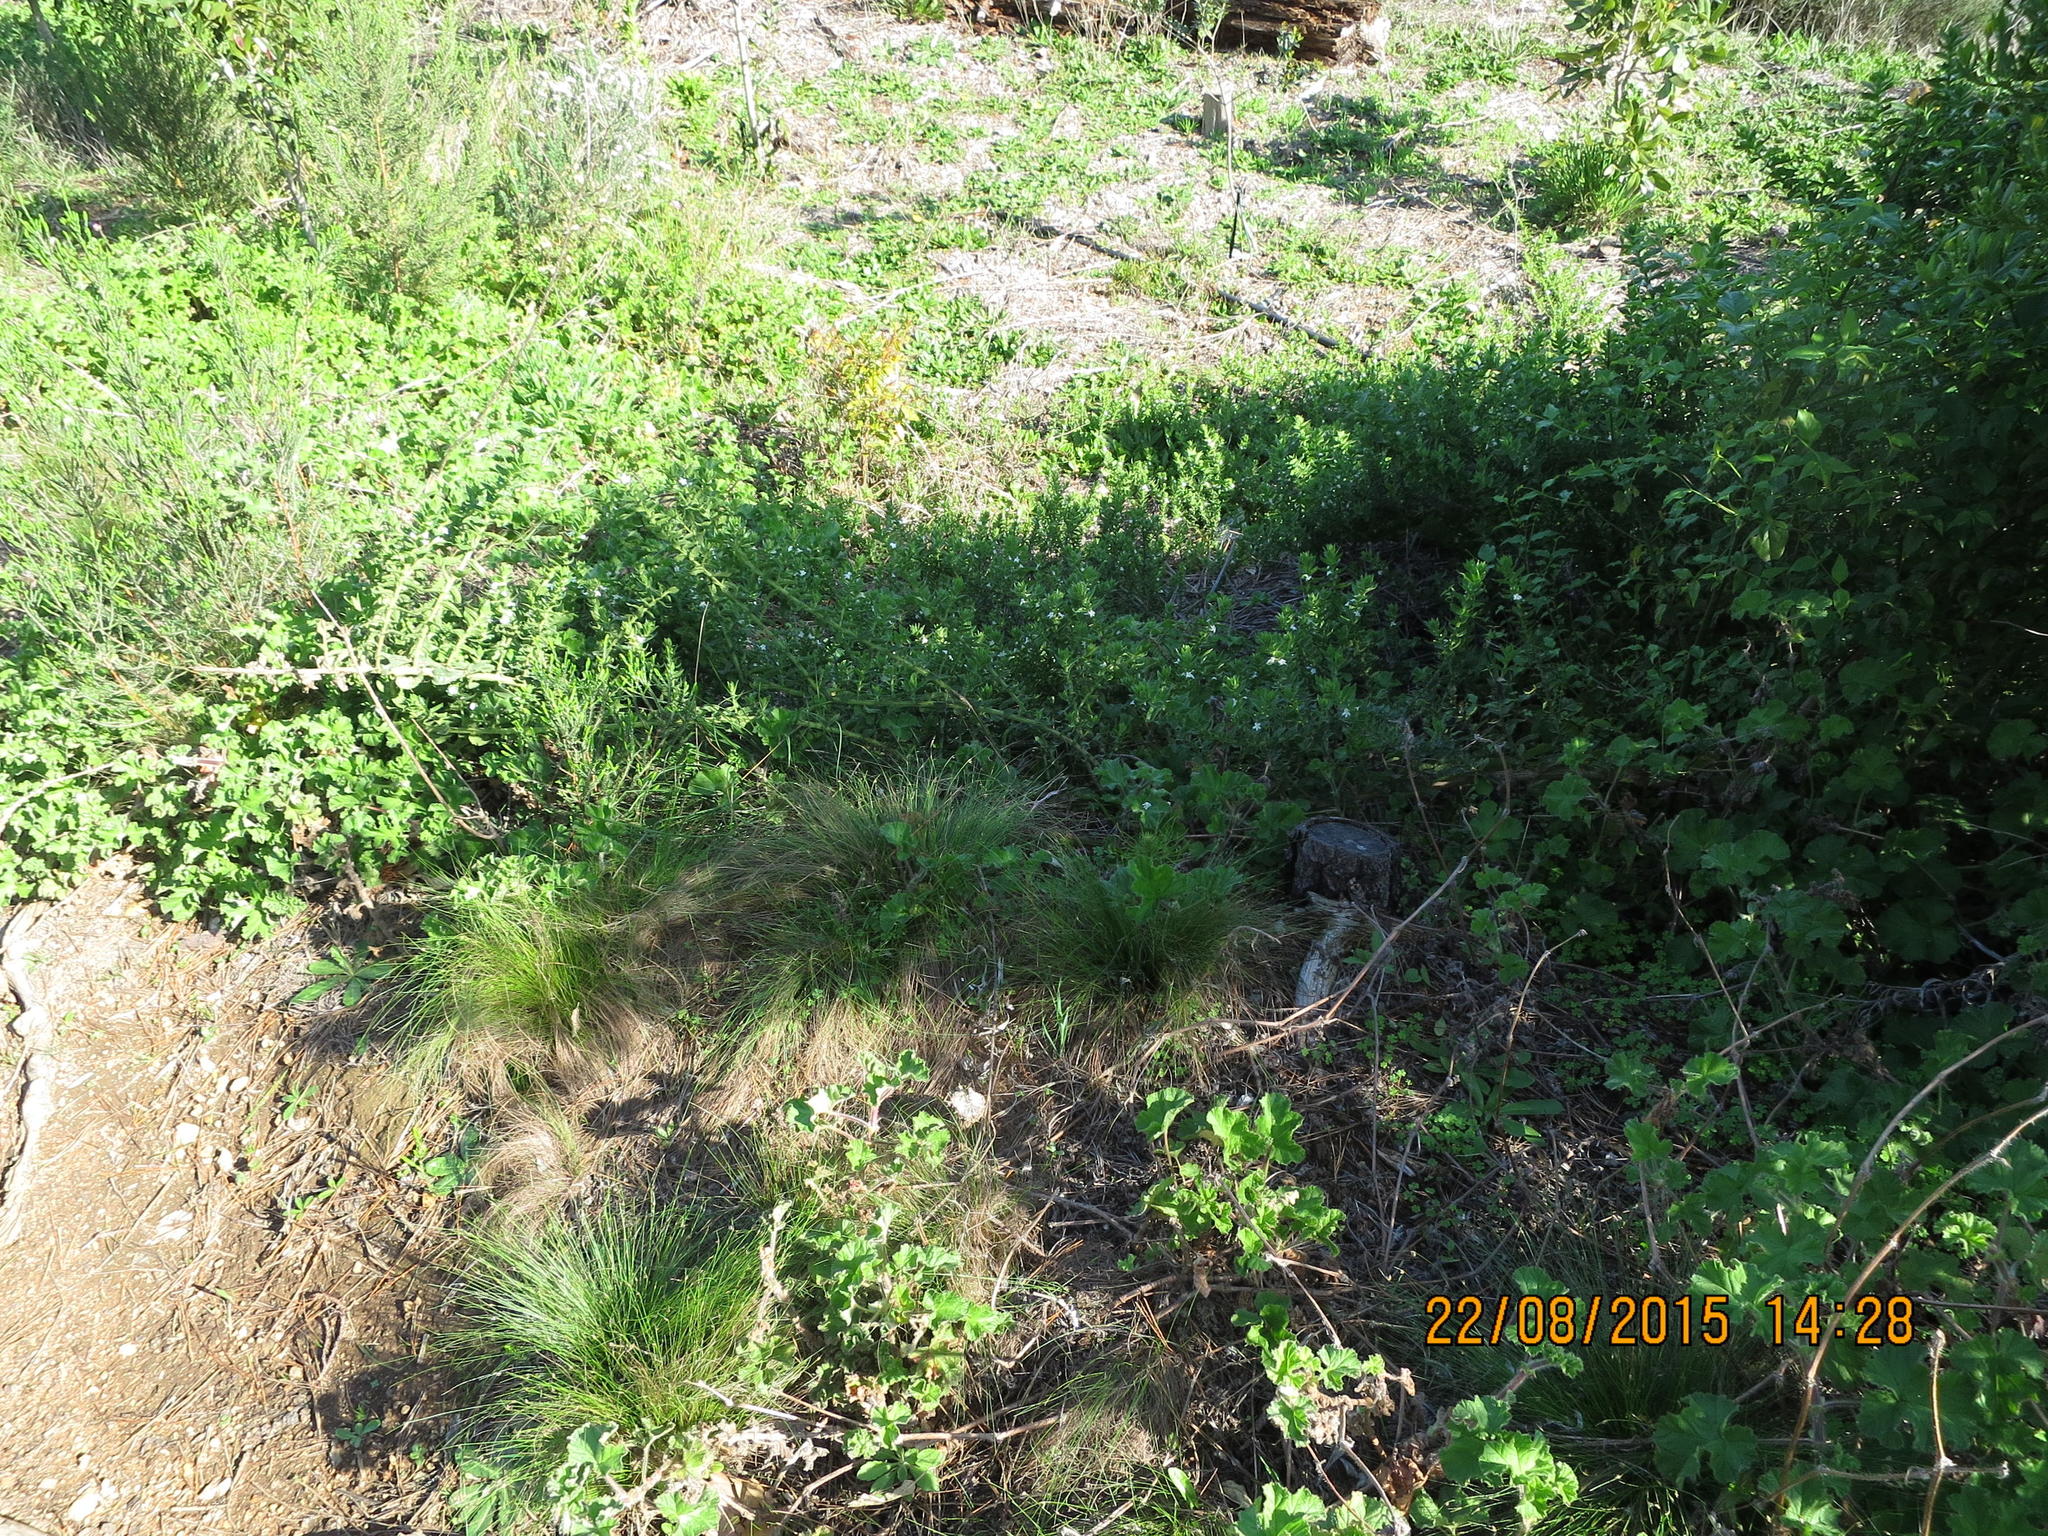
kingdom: Plantae
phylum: Tracheophyta
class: Magnoliopsida
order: Lamiales
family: Scrophulariaceae
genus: Oftia
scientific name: Oftia africana
